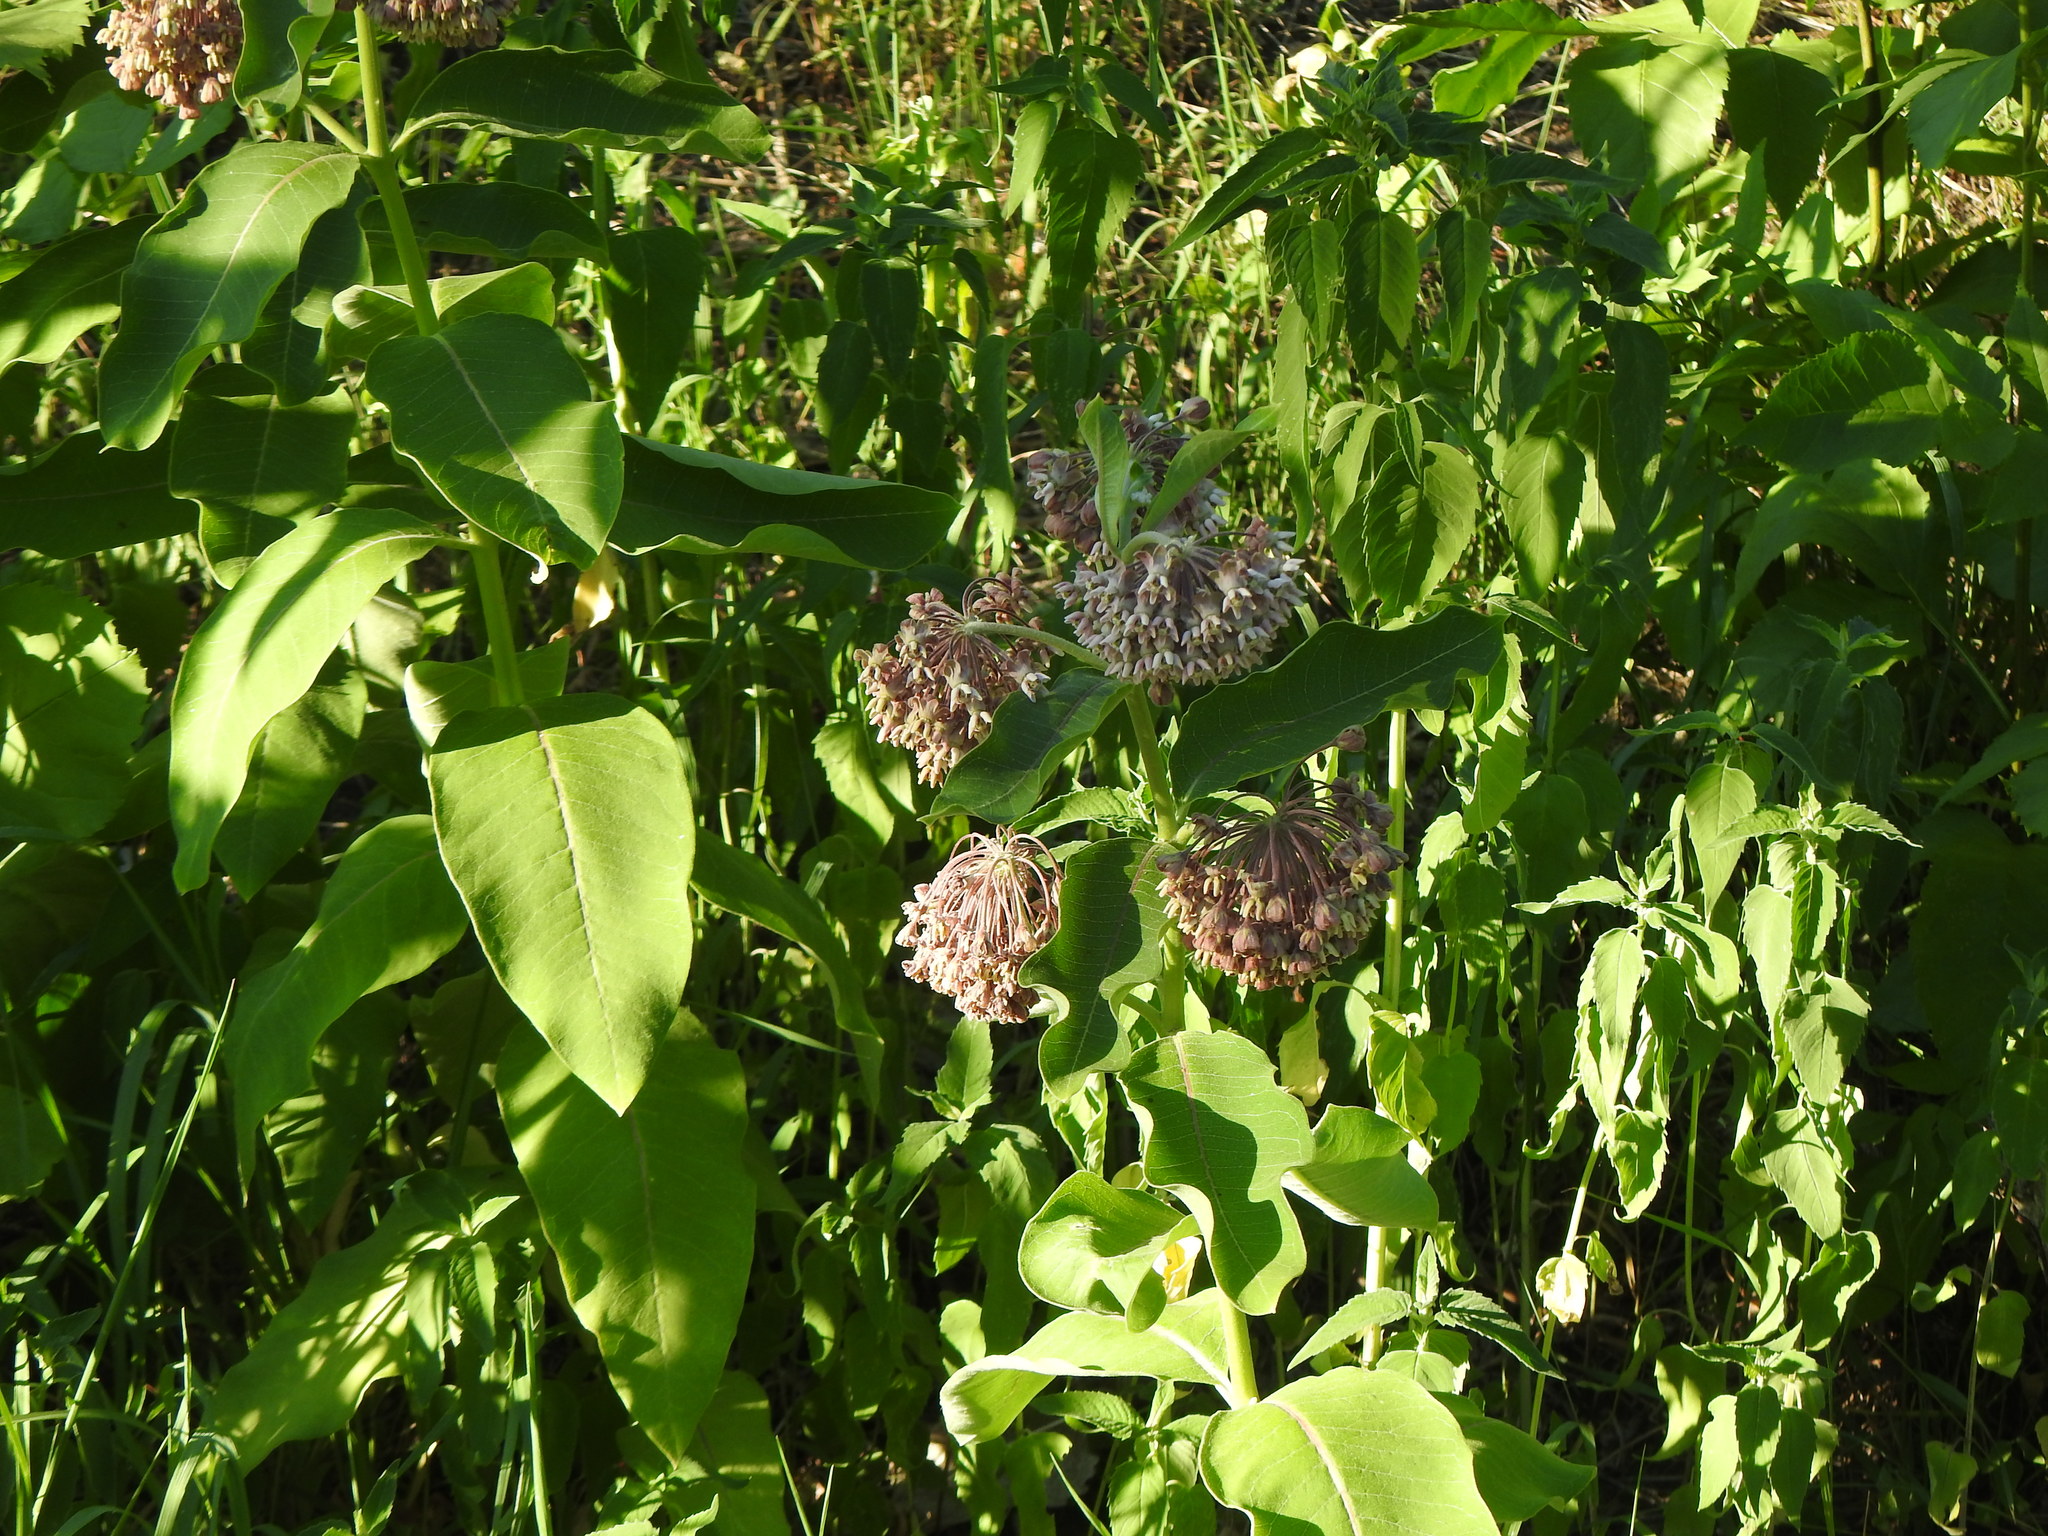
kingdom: Plantae
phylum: Tracheophyta
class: Magnoliopsida
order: Gentianales
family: Apocynaceae
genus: Asclepias
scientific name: Asclepias syriaca
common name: Common milkweed
